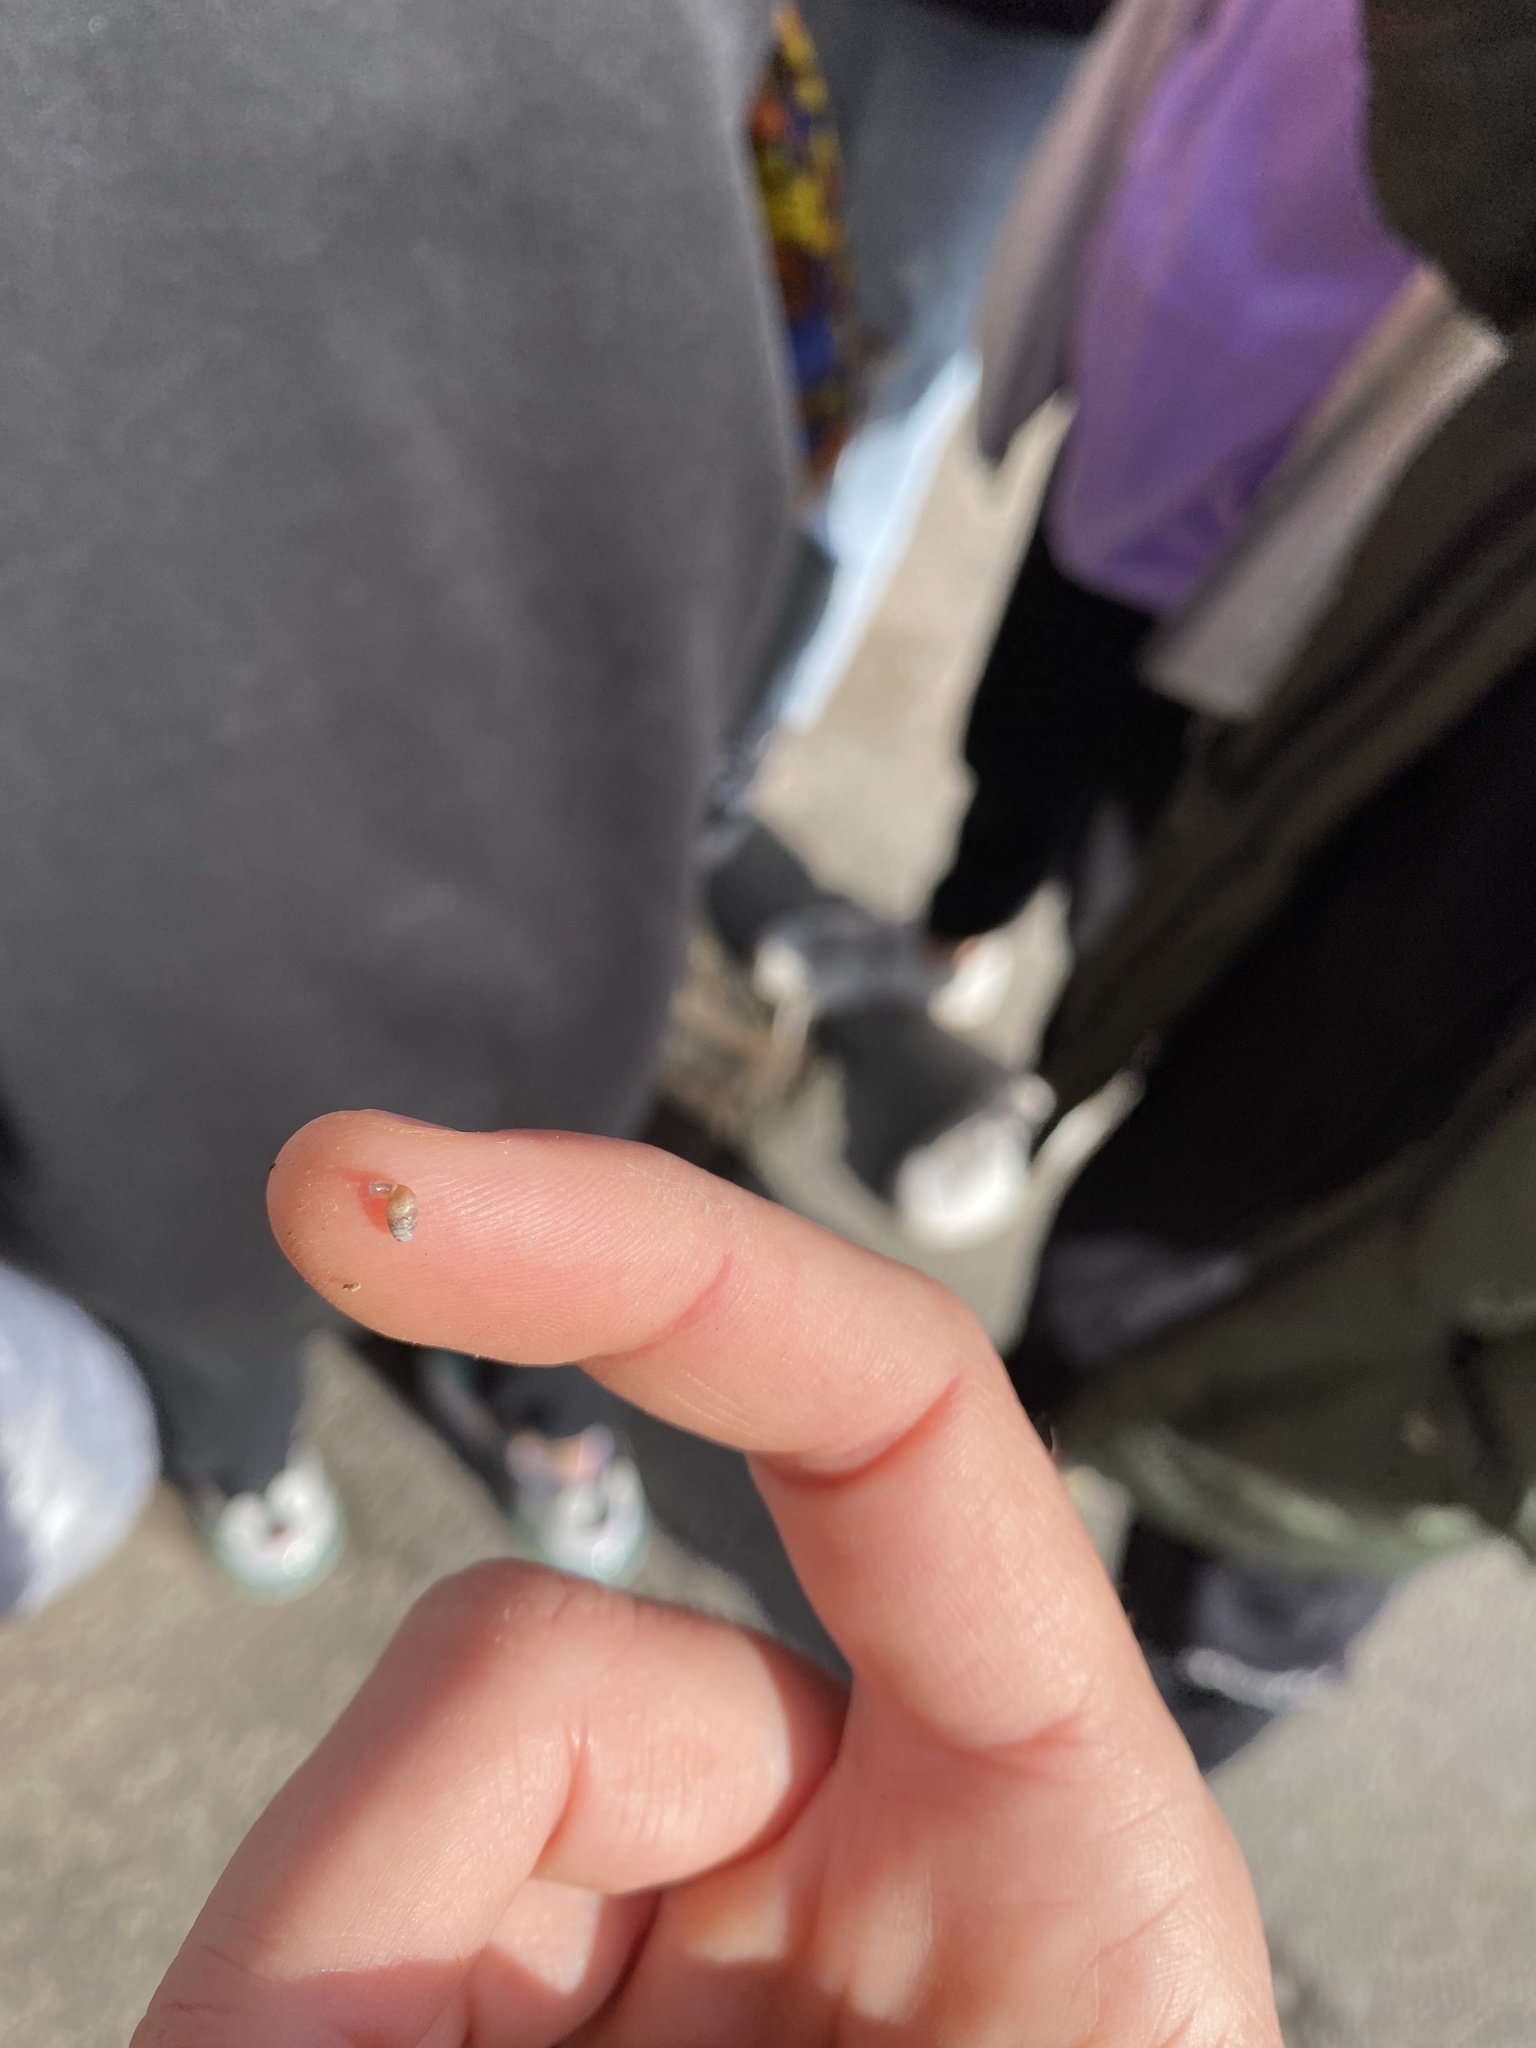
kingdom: Animalia
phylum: Mollusca
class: Gastropoda
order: Stylommatophora
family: Lauriidae
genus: Lauria
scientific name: Lauria cylindracea
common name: Common chrysalis snail
